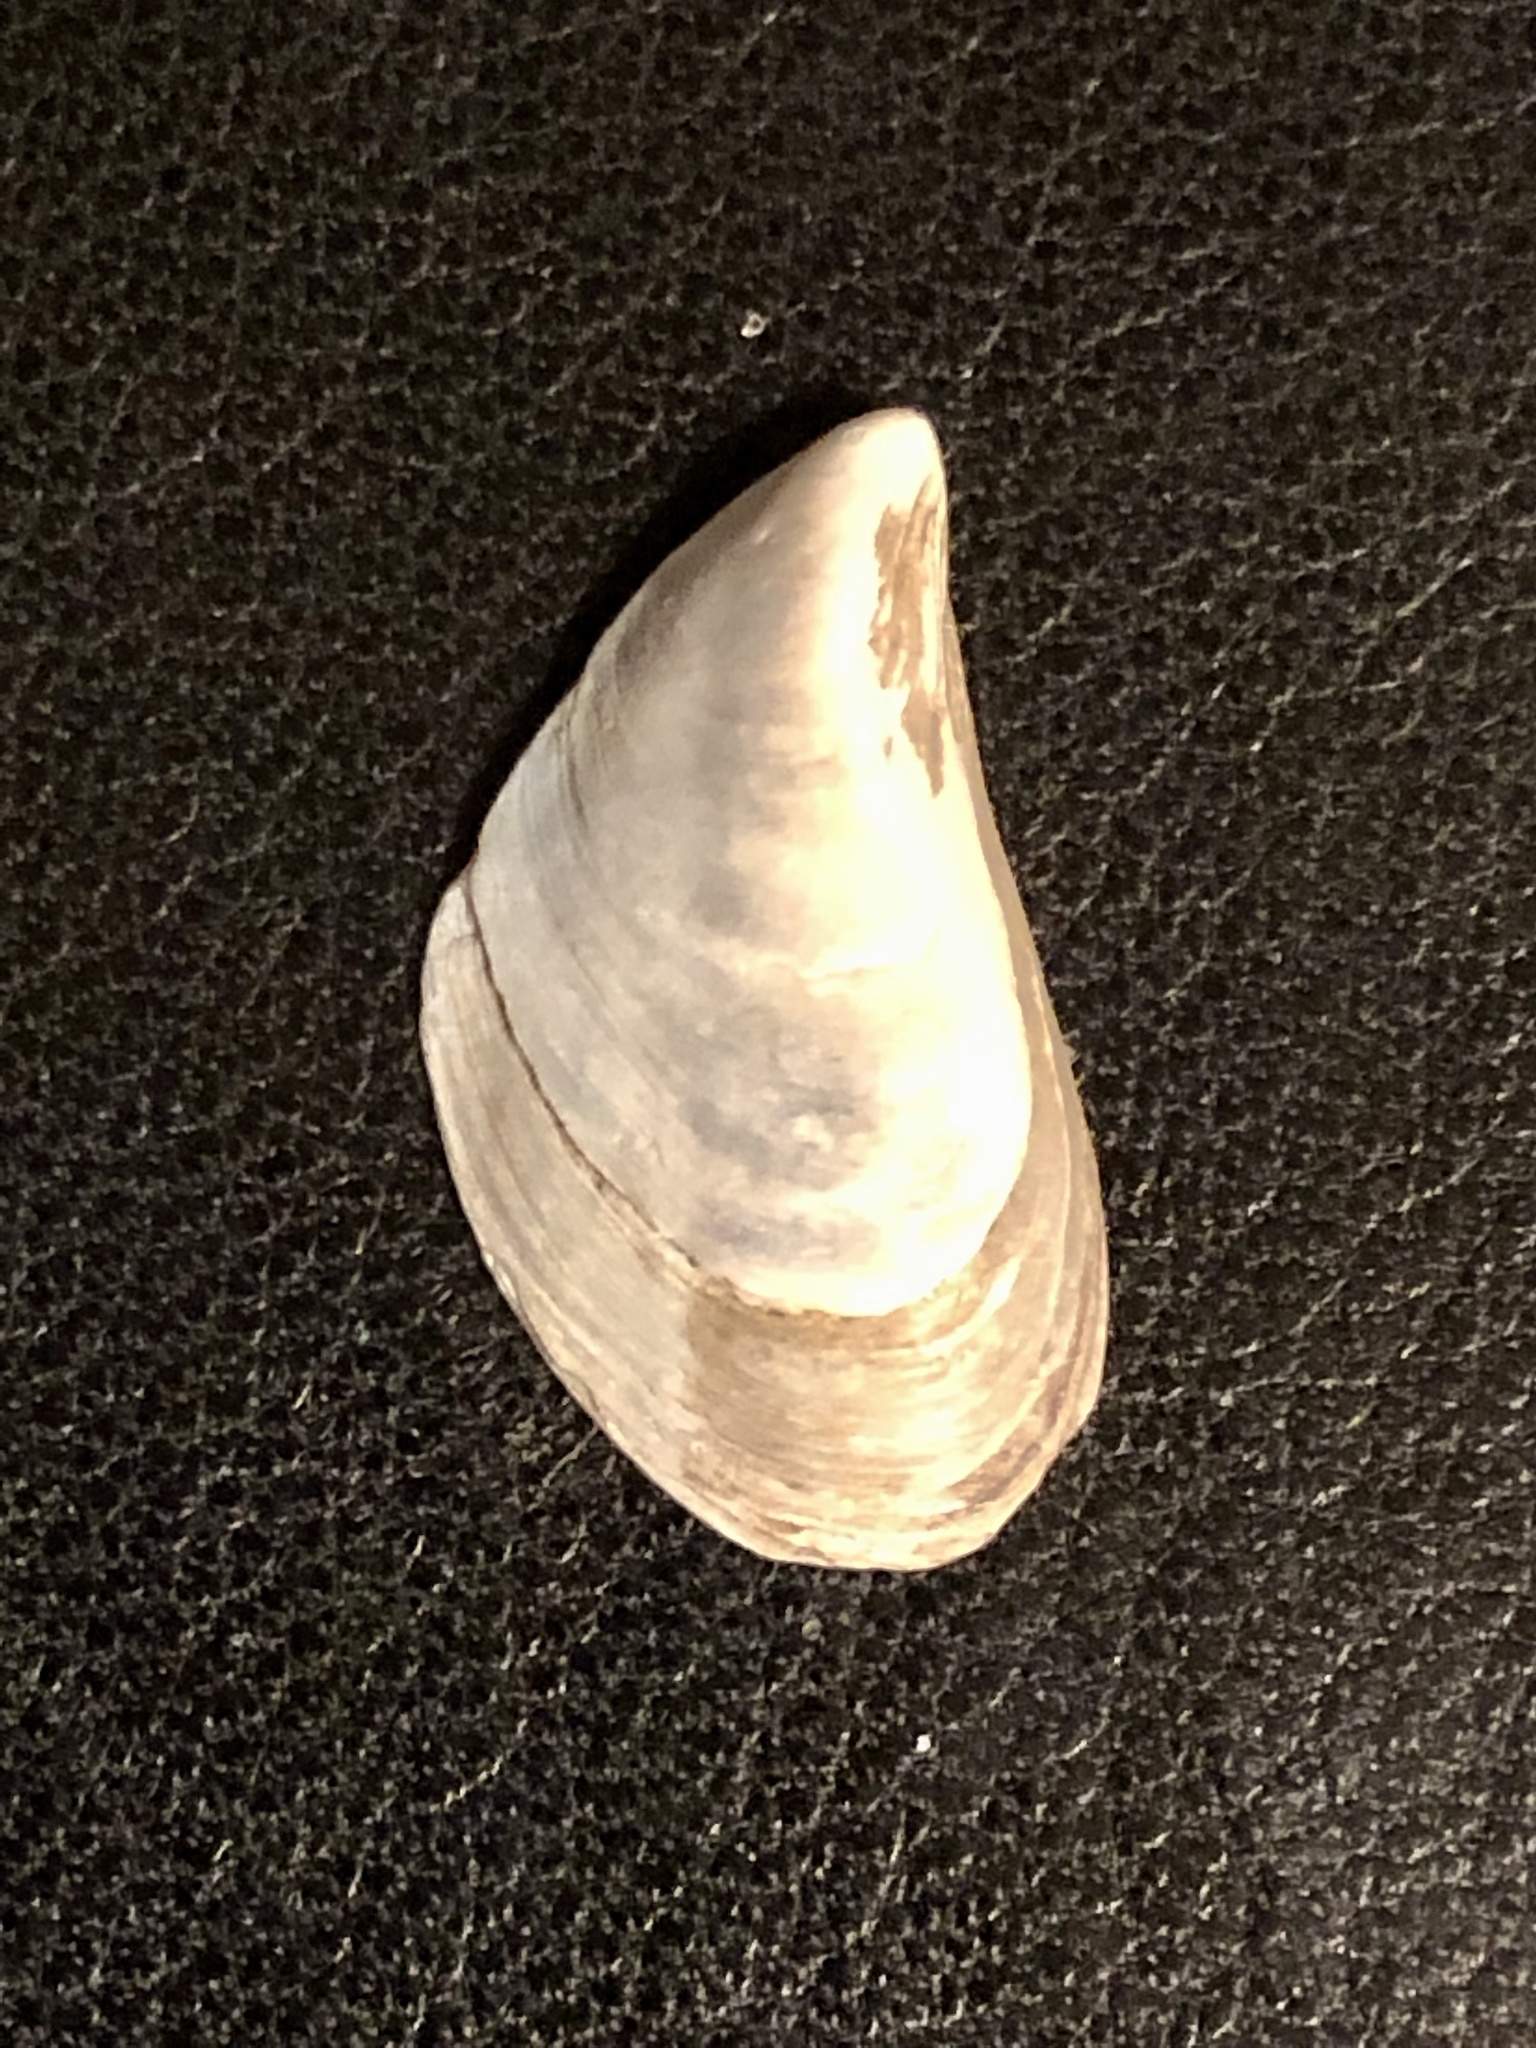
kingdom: Animalia
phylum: Mollusca
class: Bivalvia
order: Myida
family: Dreissenidae
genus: Dreissena
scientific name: Dreissena bugensis
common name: Quagga mussel
